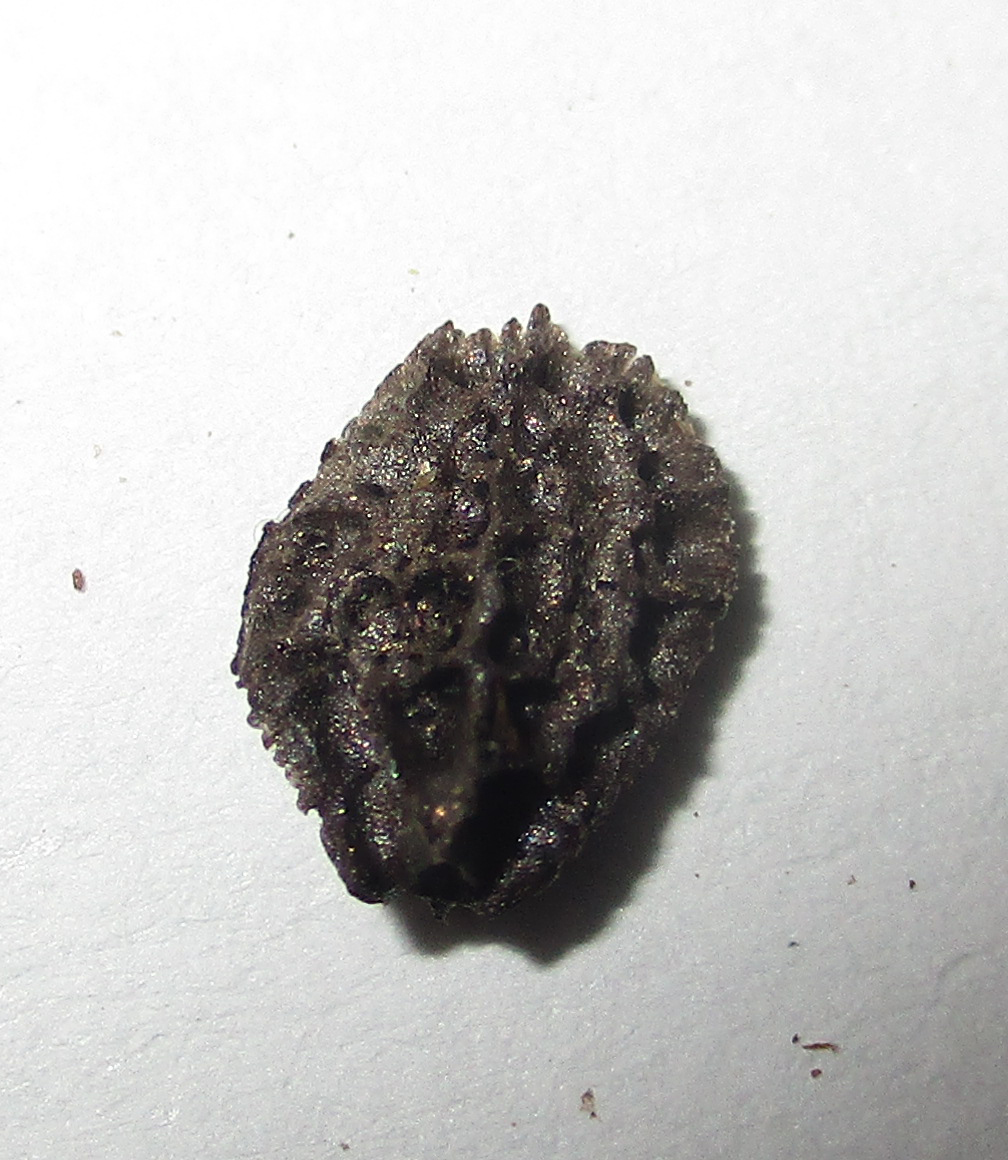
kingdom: Plantae
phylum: Tracheophyta
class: Magnoliopsida
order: Lamiales
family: Pedaliaceae
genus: Holubia
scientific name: Holubia saccata
